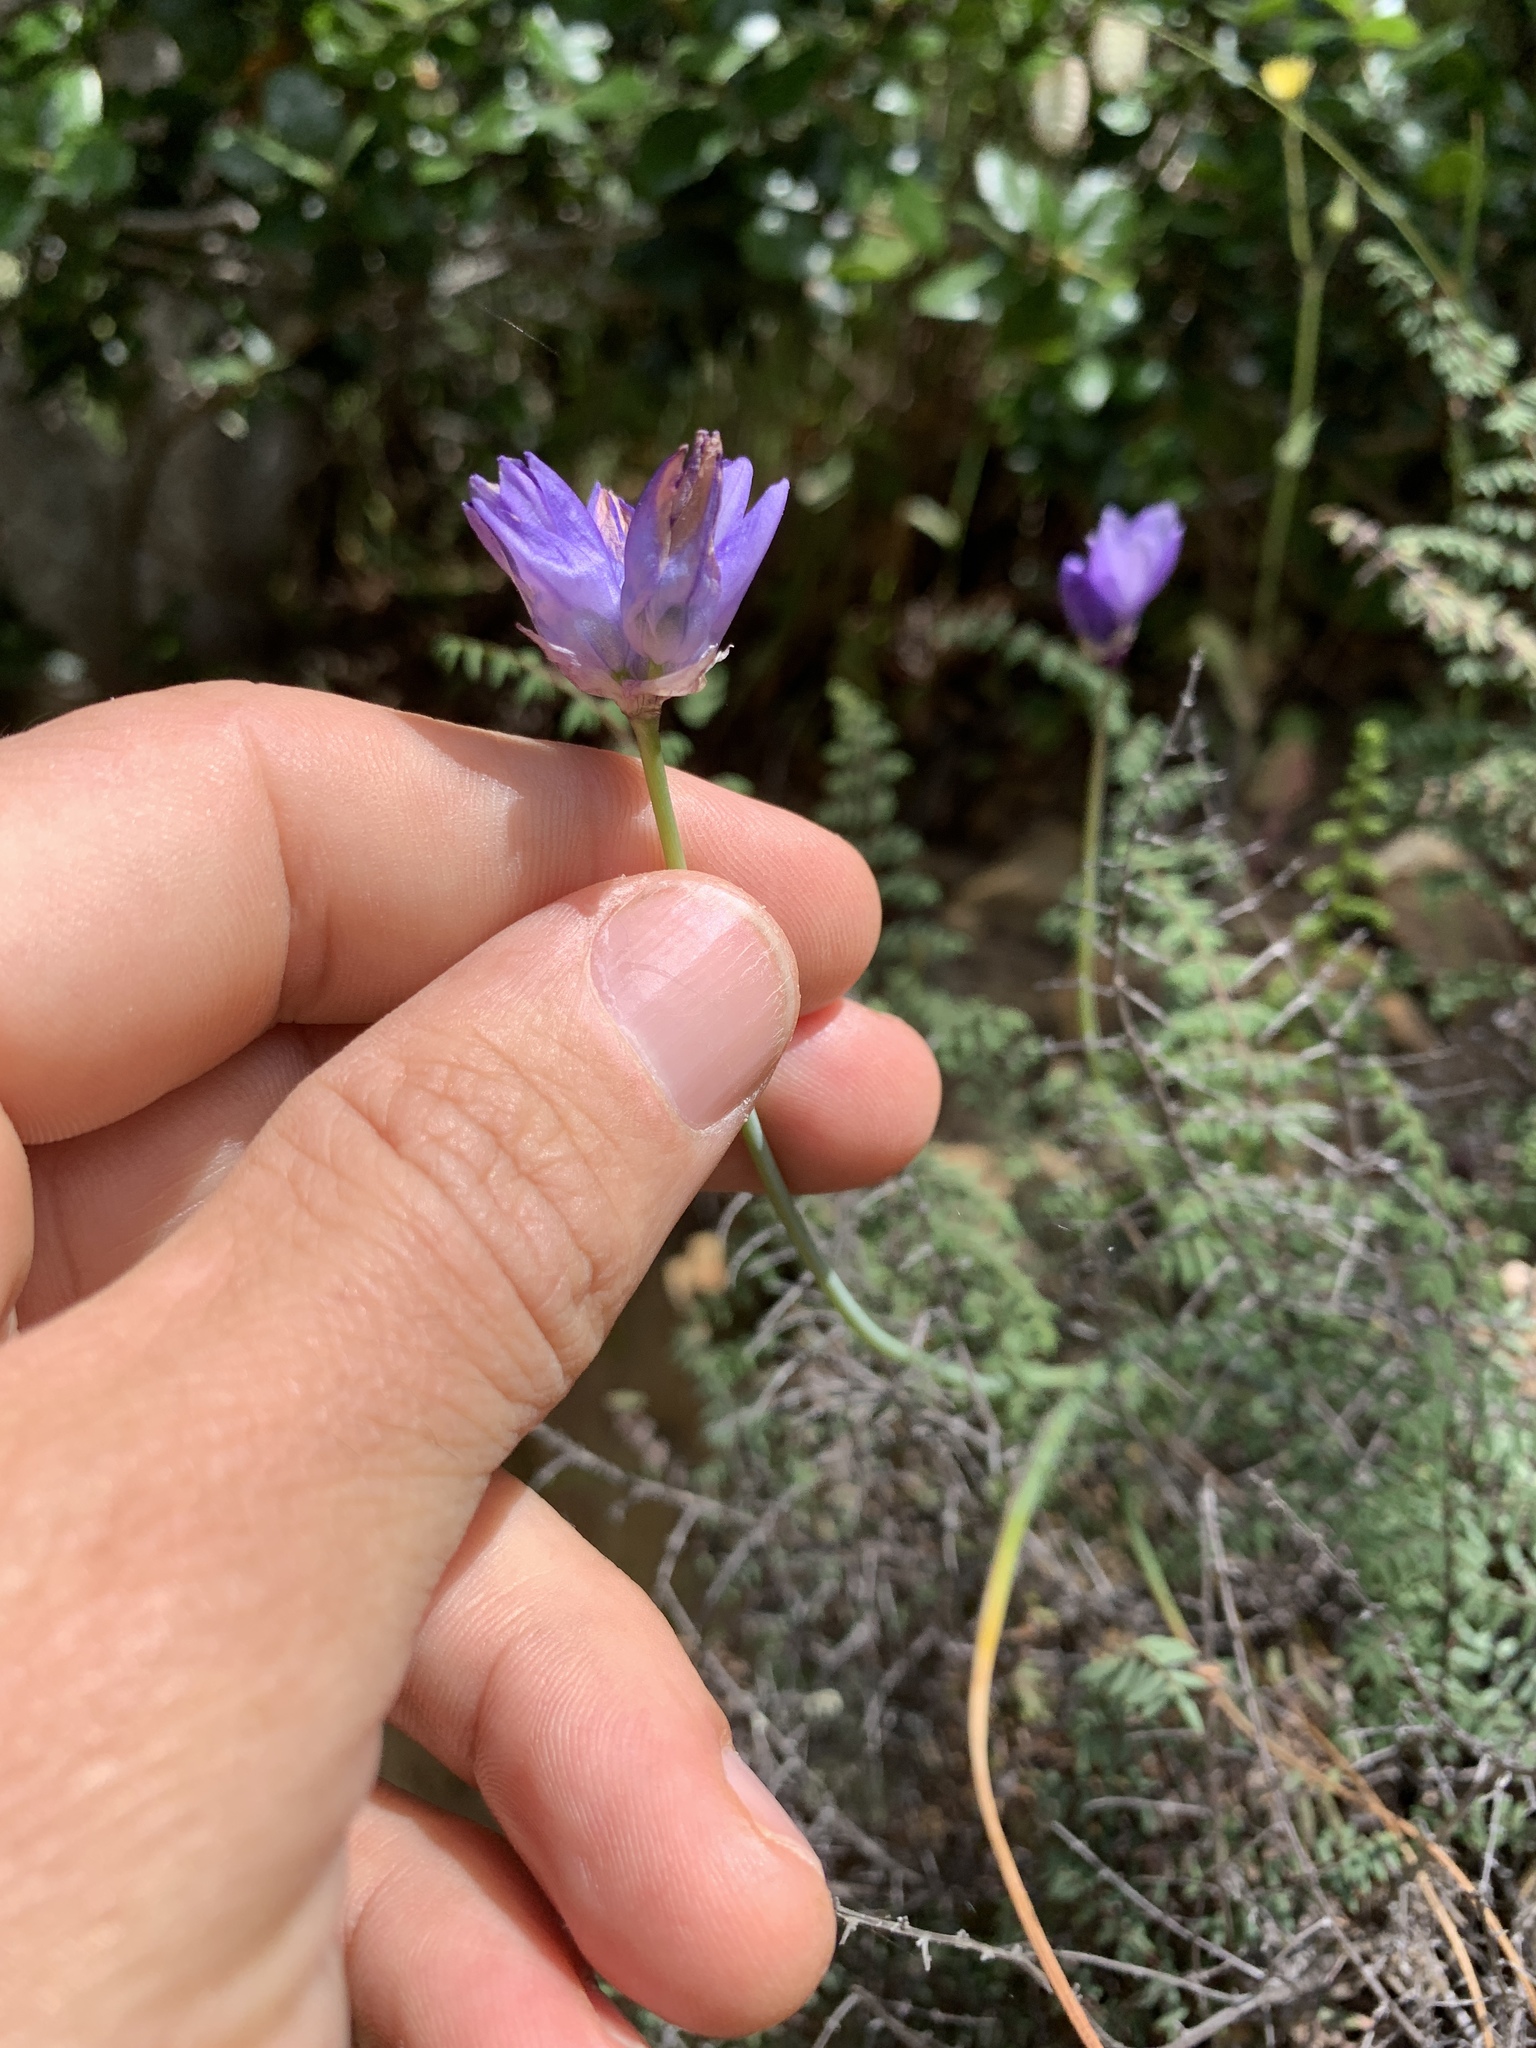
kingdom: Plantae
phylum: Tracheophyta
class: Liliopsida
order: Asparagales
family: Asparagaceae
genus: Dipterostemon
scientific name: Dipterostemon capitatus
